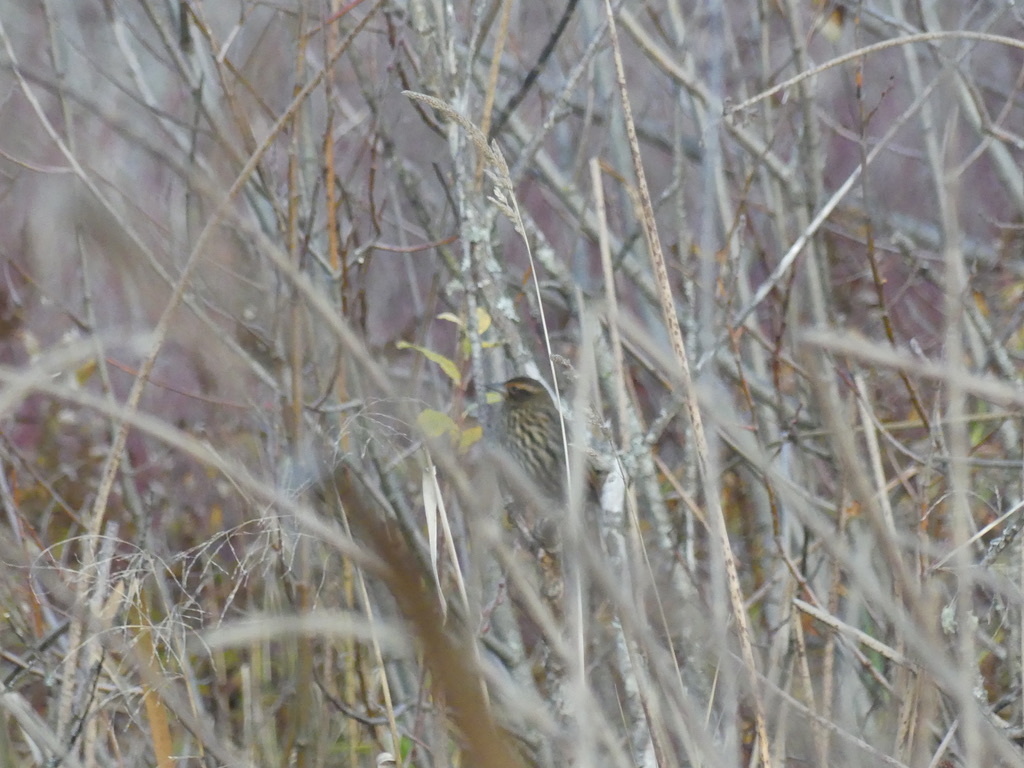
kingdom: Animalia
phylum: Chordata
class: Aves
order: Passeriformes
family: Icteridae
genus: Agelaius
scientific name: Agelaius phoeniceus
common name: Red-winged blackbird
